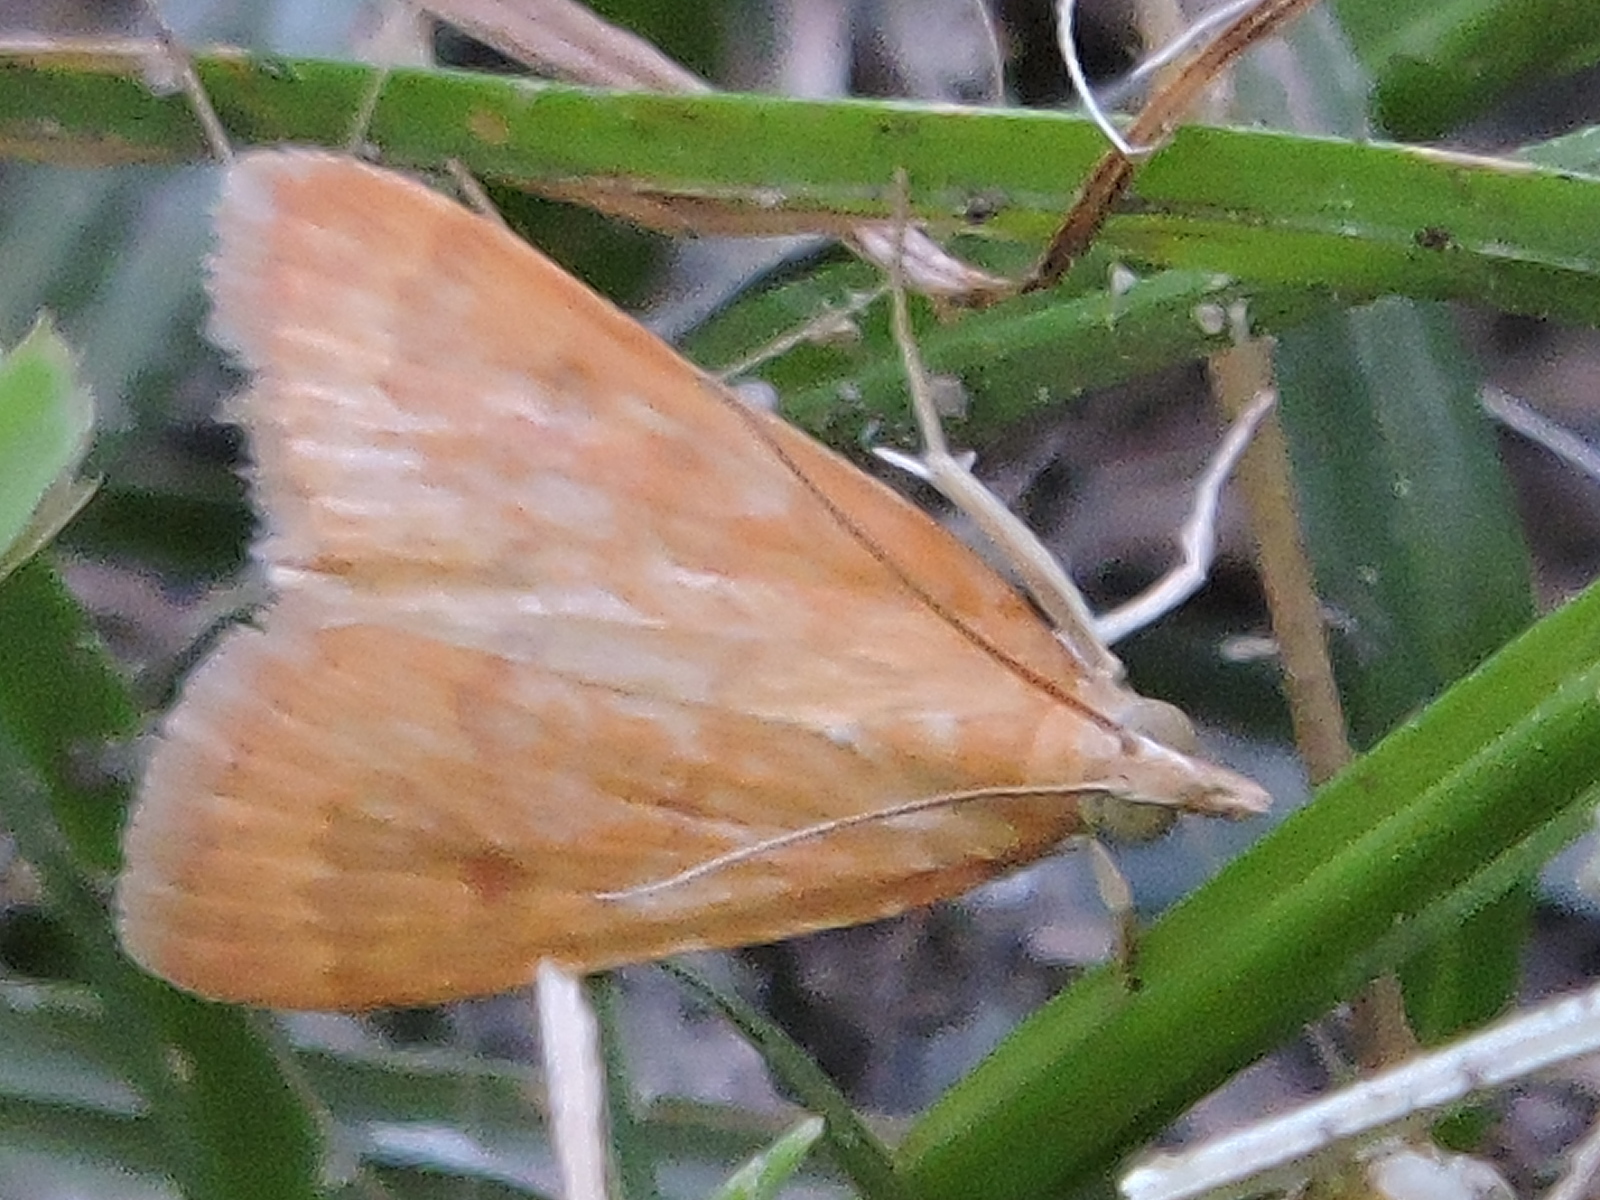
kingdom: Animalia
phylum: Arthropoda
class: Insecta
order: Lepidoptera
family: Crambidae
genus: Achyra
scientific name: Achyra rantalis
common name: Garden webworm
